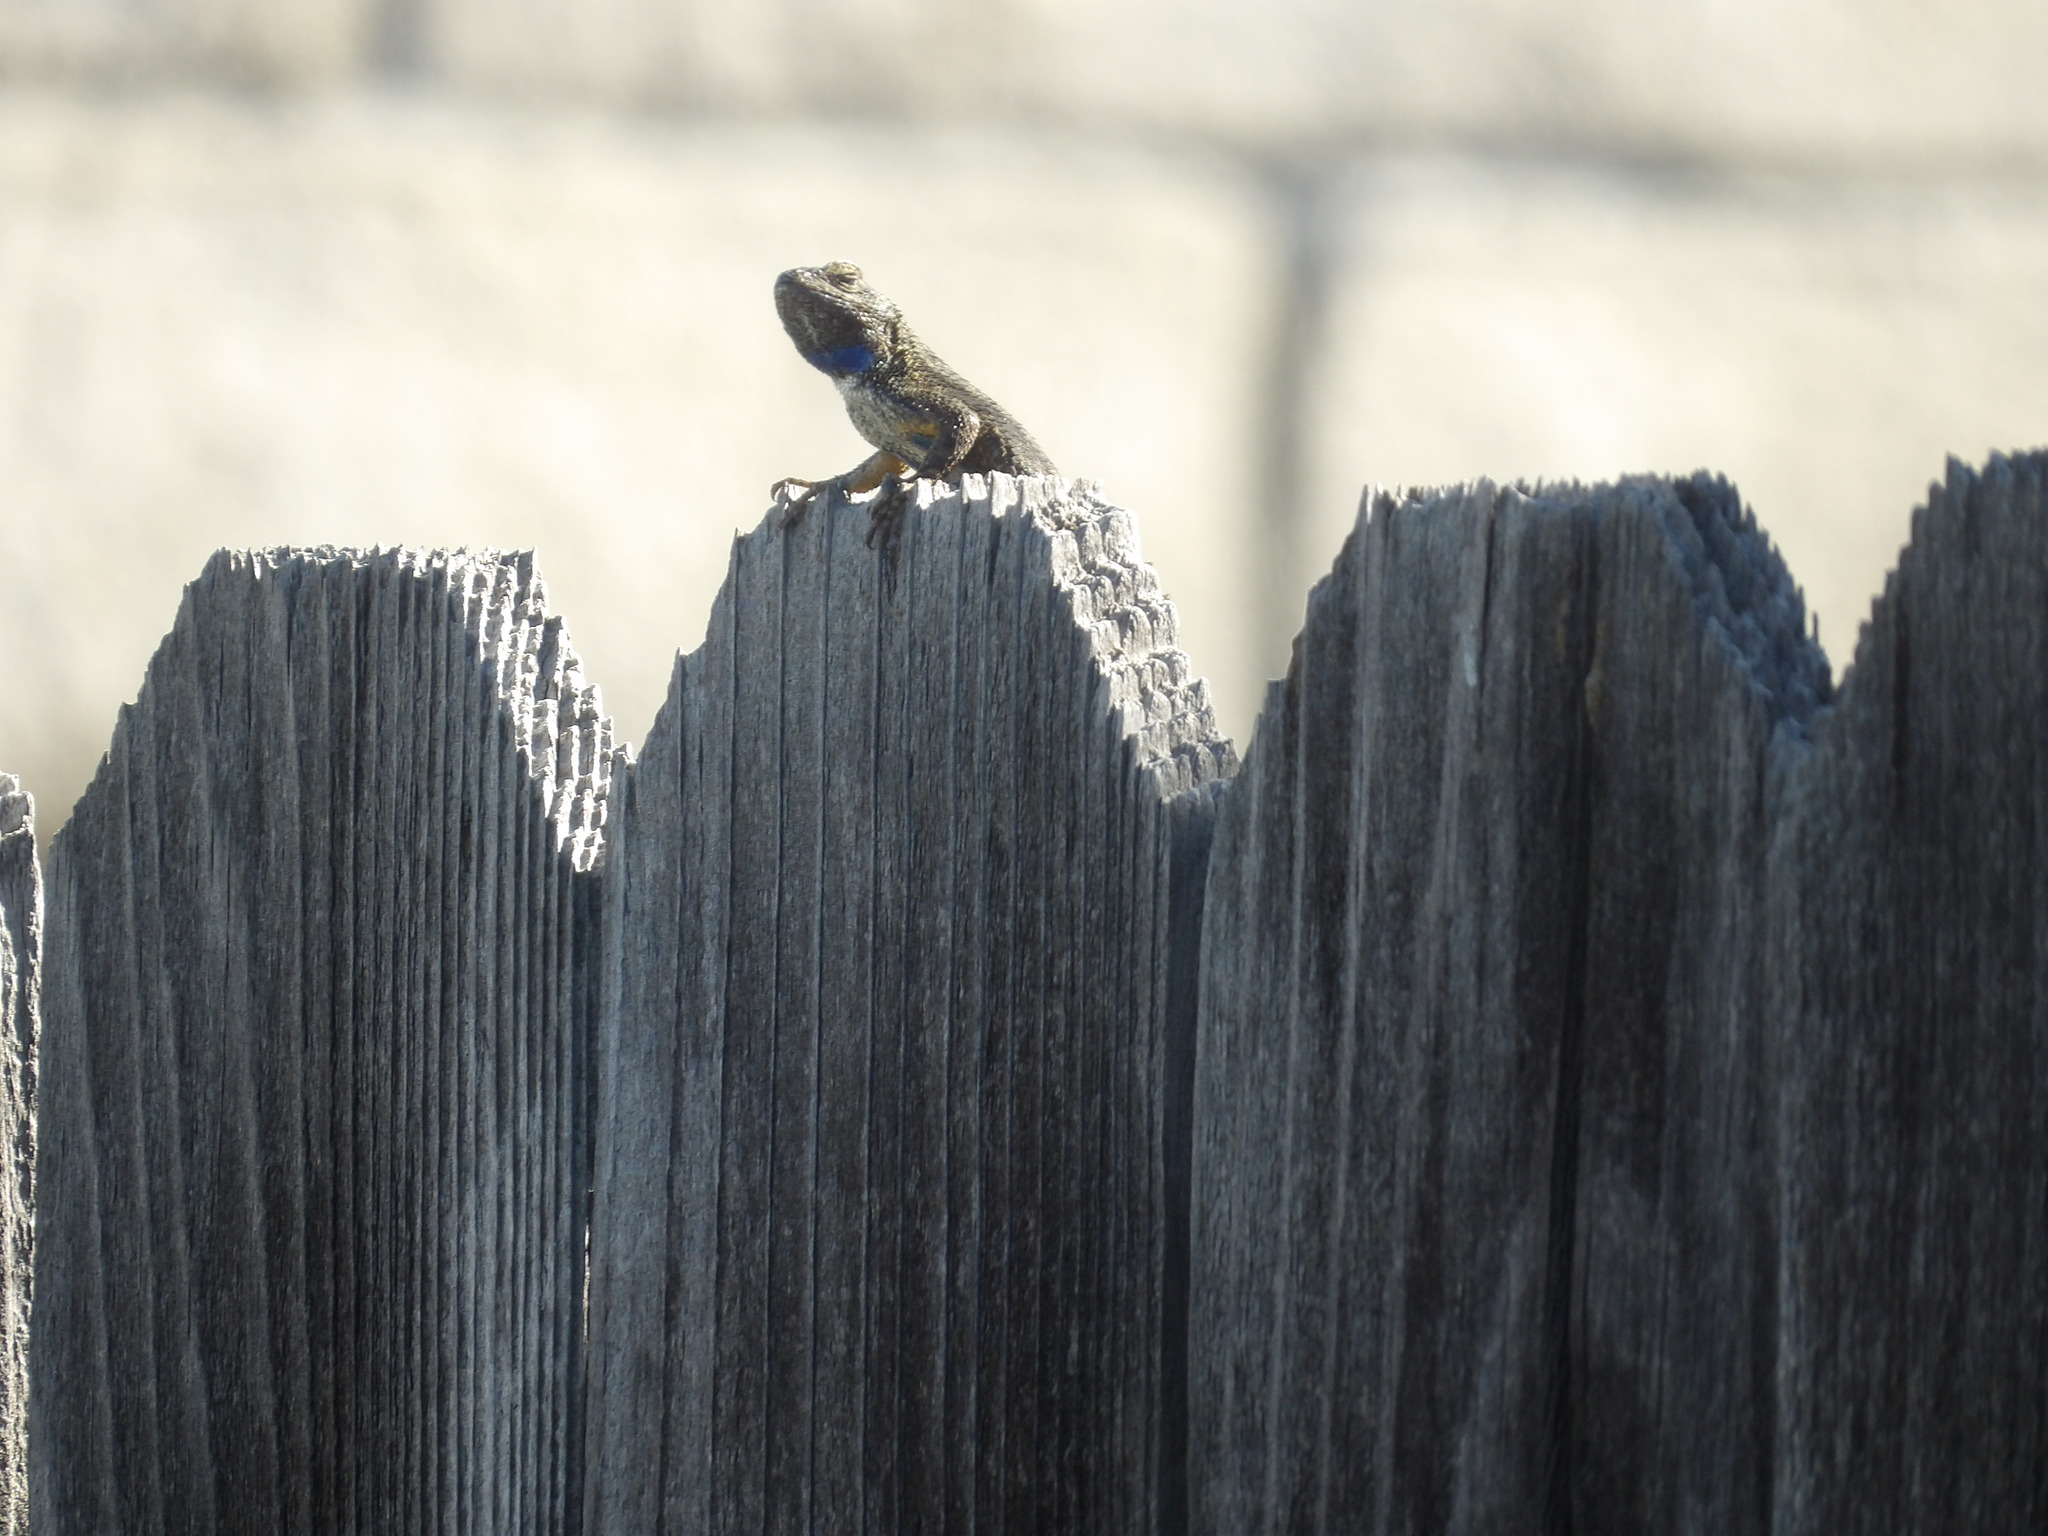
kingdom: Animalia
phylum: Chordata
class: Squamata
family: Phrynosomatidae
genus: Sceloporus
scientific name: Sceloporus occidentalis
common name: Western fence lizard
